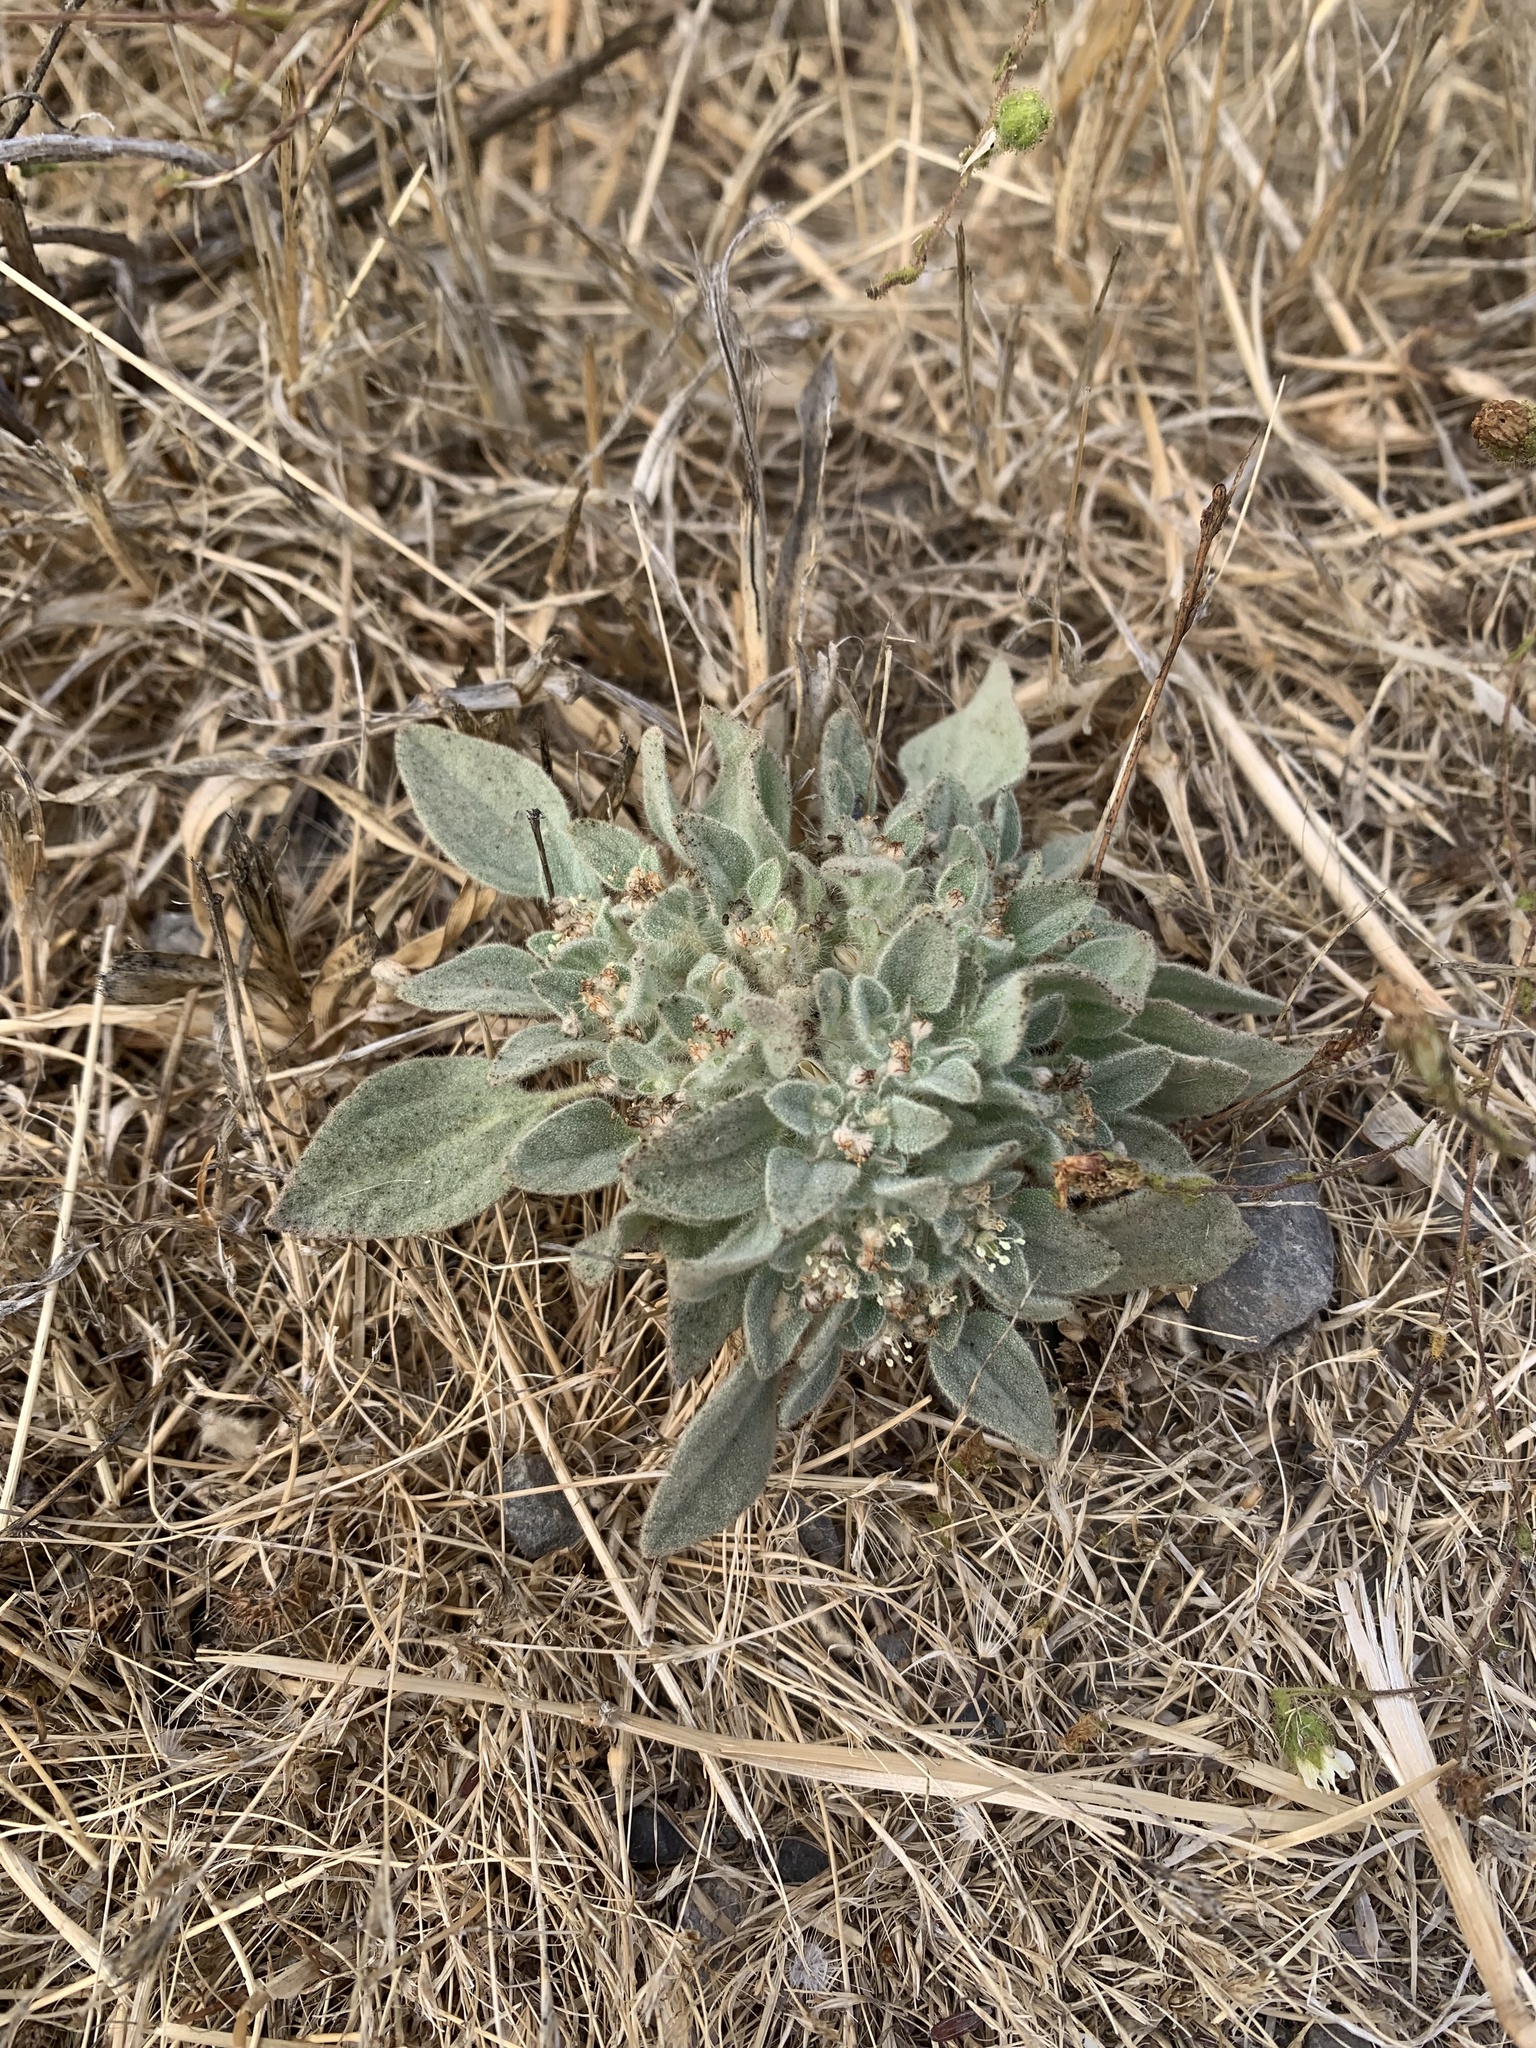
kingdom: Plantae
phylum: Tracheophyta
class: Magnoliopsida
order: Malpighiales
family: Euphorbiaceae
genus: Croton
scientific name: Croton setiger
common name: Dove weed
